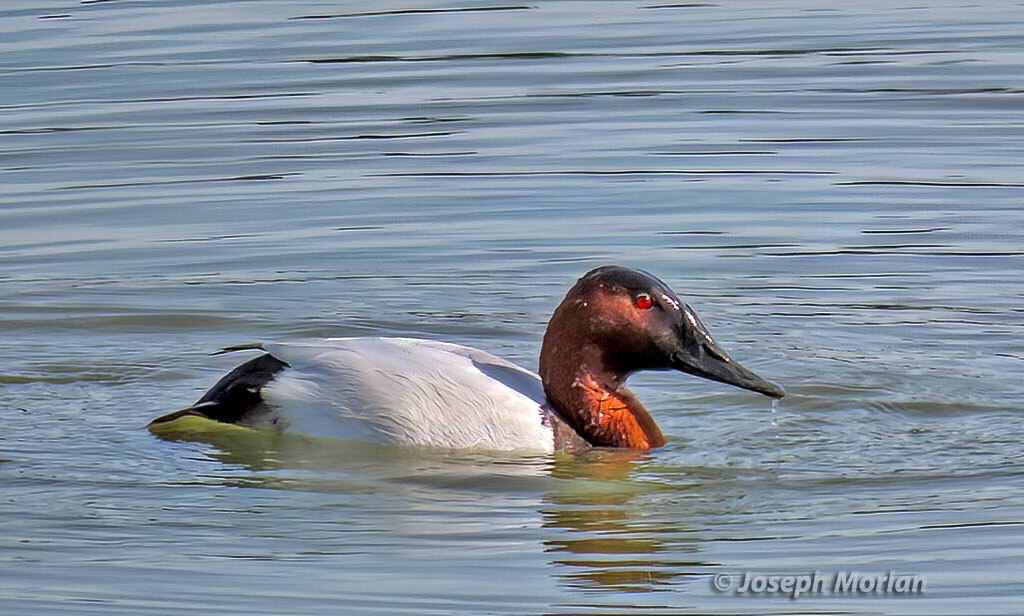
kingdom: Animalia
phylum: Chordata
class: Aves
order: Anseriformes
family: Anatidae
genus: Aythya
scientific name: Aythya valisineria
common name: Canvasback
